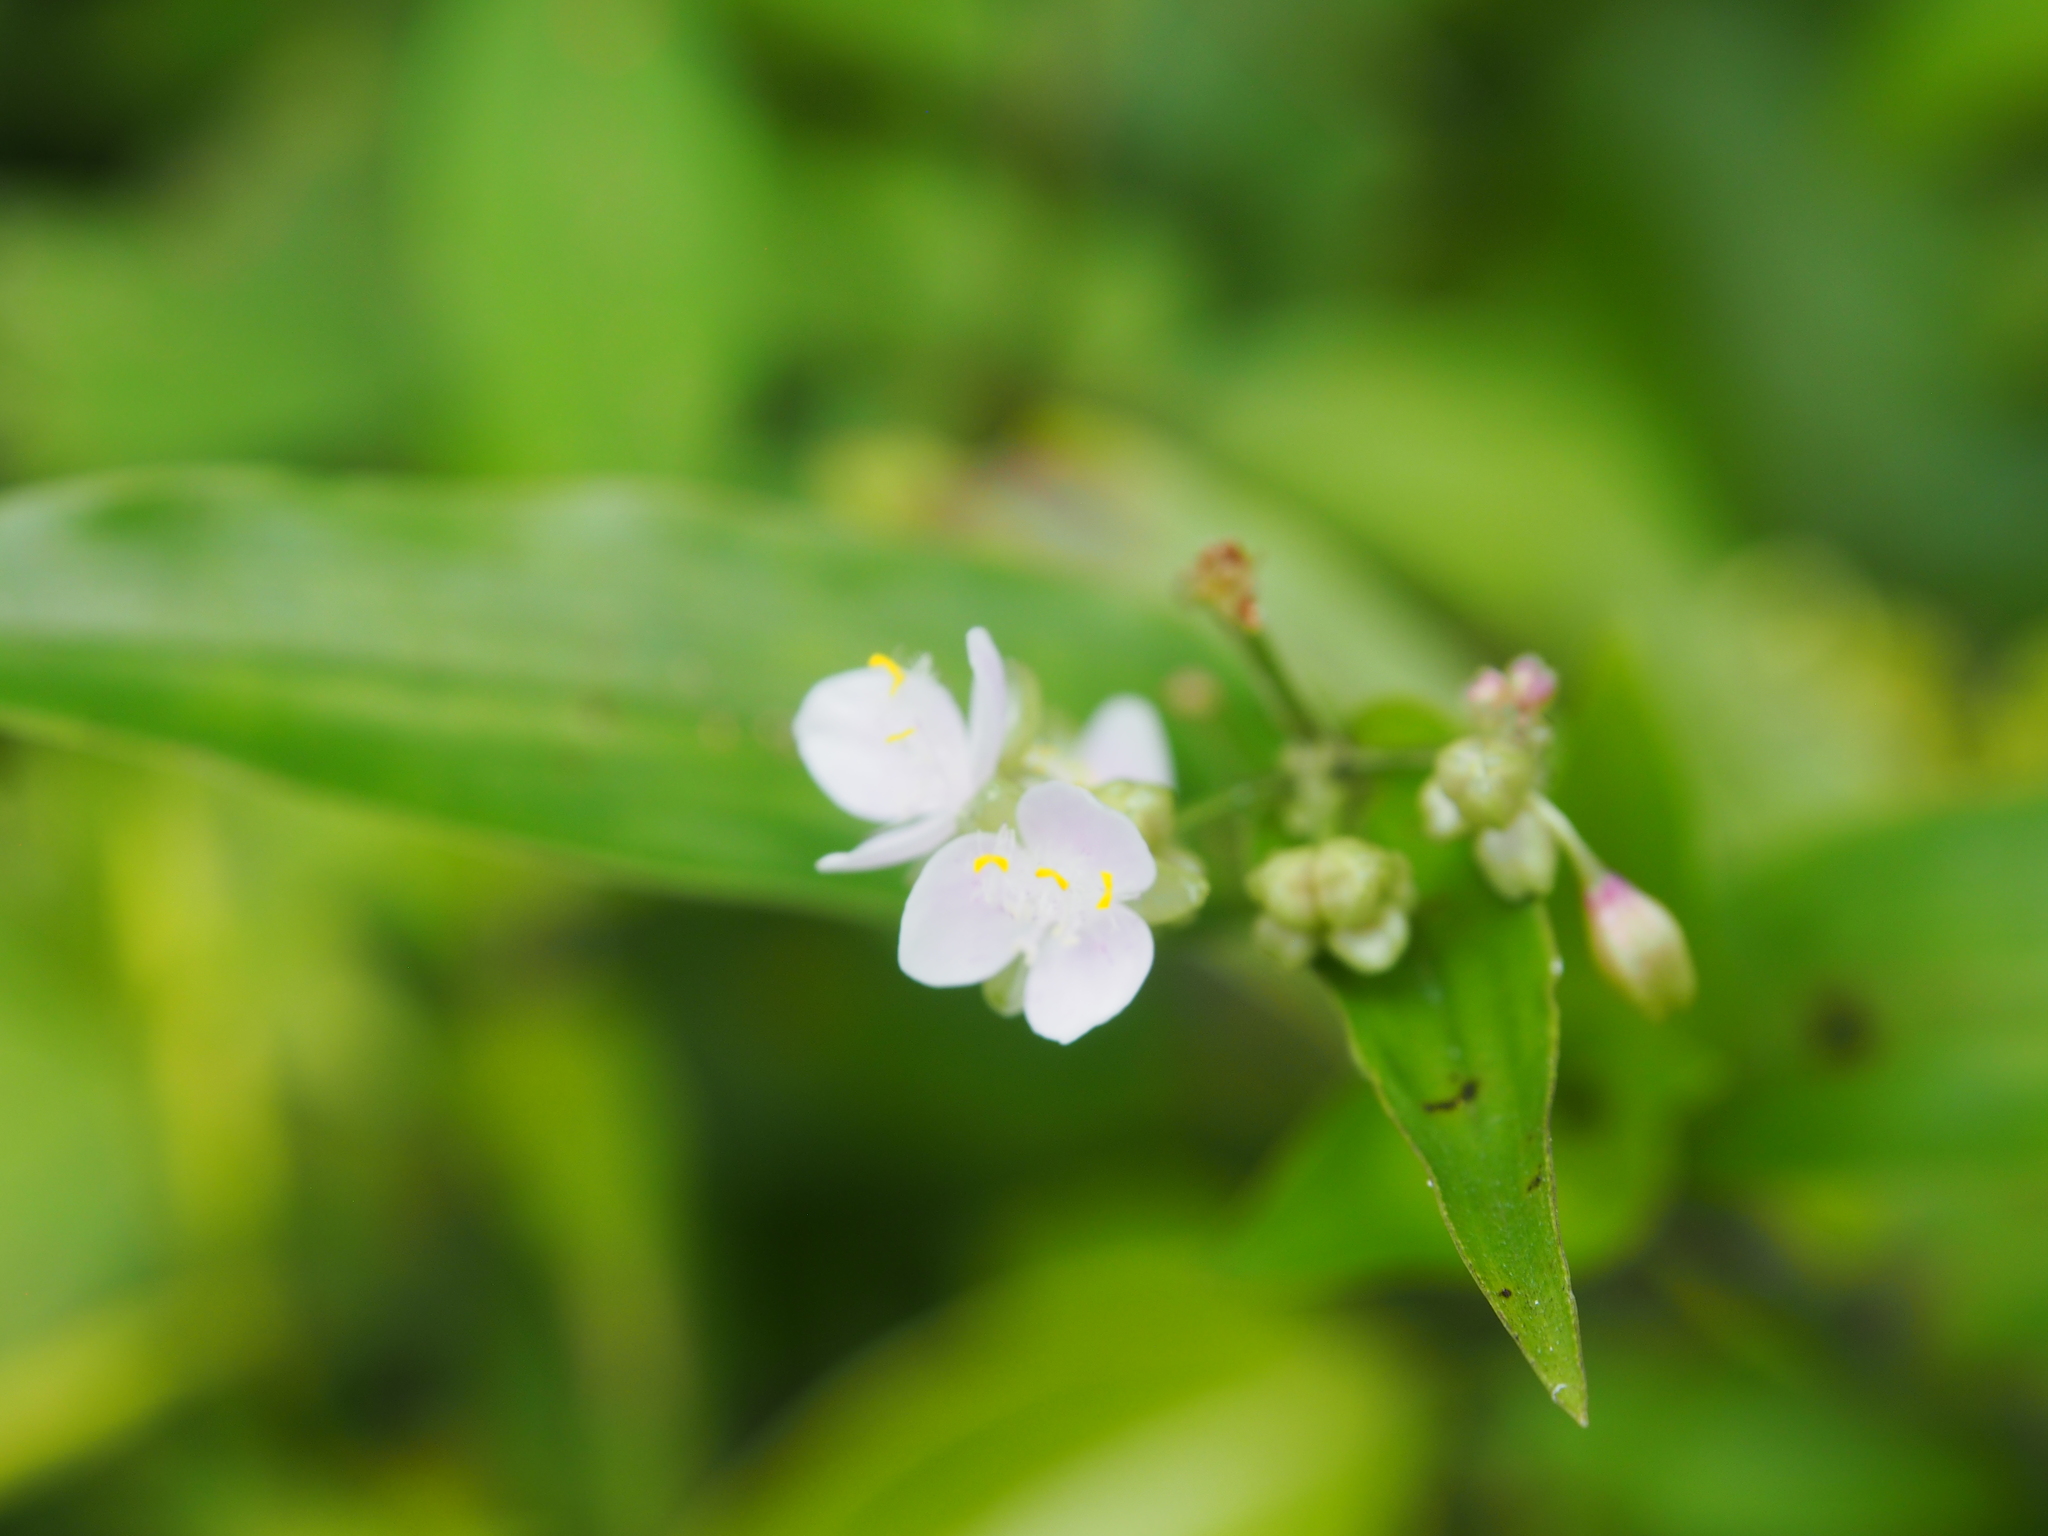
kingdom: Plantae
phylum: Tracheophyta
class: Liliopsida
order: Commelinales
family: Commelinaceae
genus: Callisia
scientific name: Callisia serrulata
